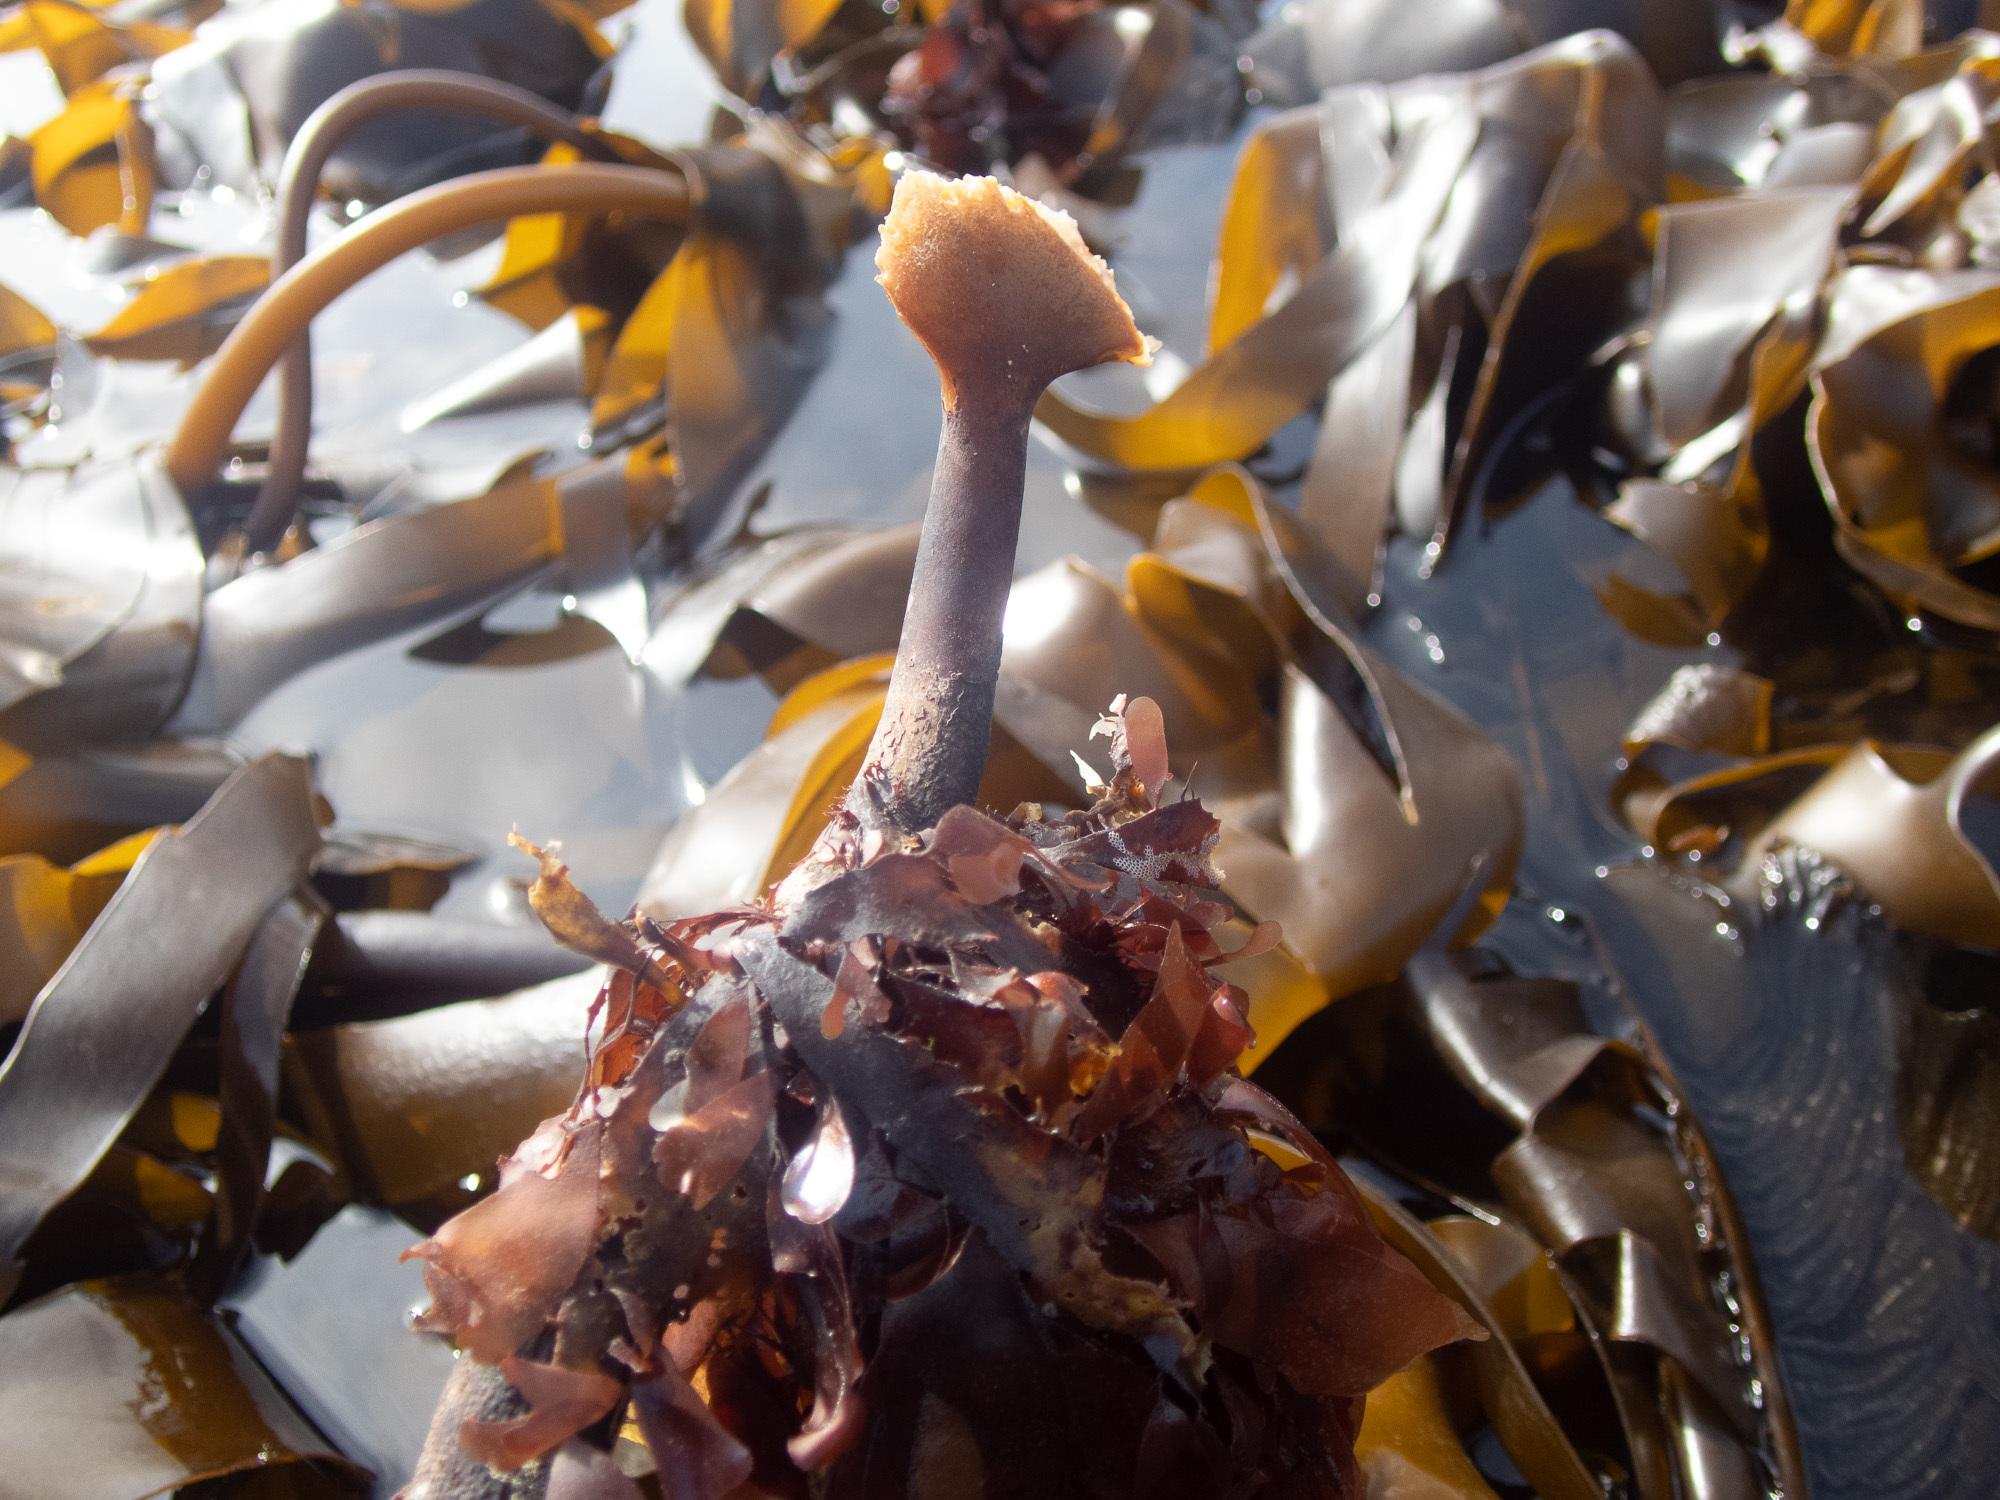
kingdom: Chromista
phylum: Ochrophyta
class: Phaeophyceae
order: Laminariales
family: Laminariaceae
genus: Laminaria
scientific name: Laminaria hyperborea
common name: Cuvie
